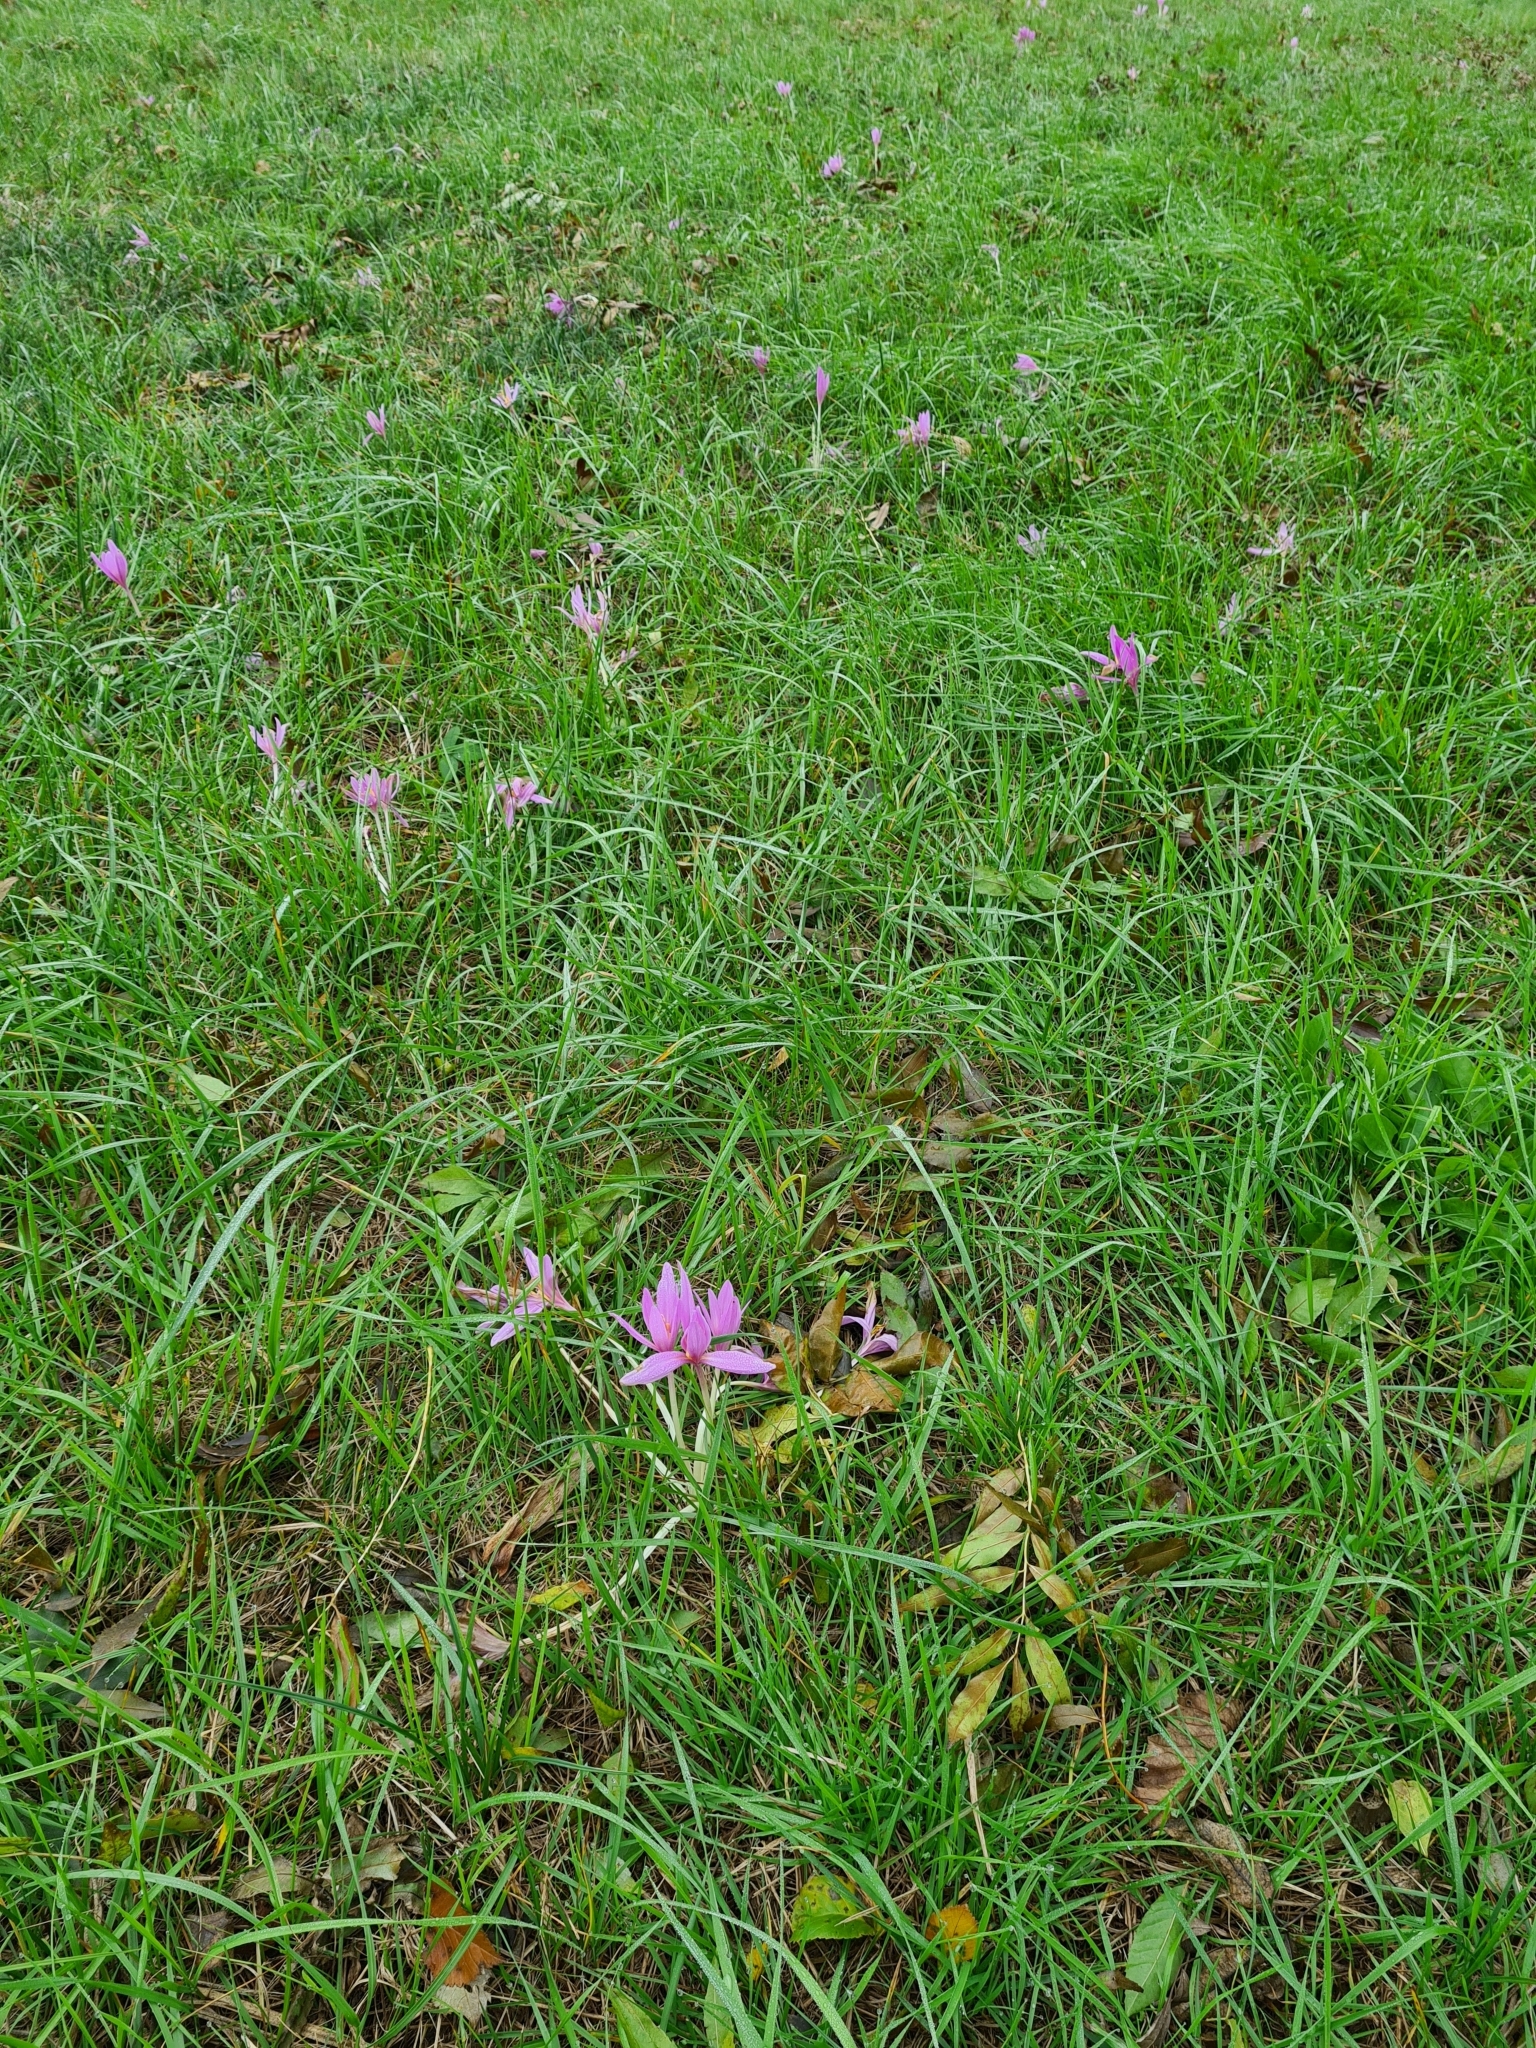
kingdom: Plantae
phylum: Tracheophyta
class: Liliopsida
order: Liliales
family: Colchicaceae
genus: Colchicum
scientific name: Colchicum autumnale
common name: Autumn crocus
